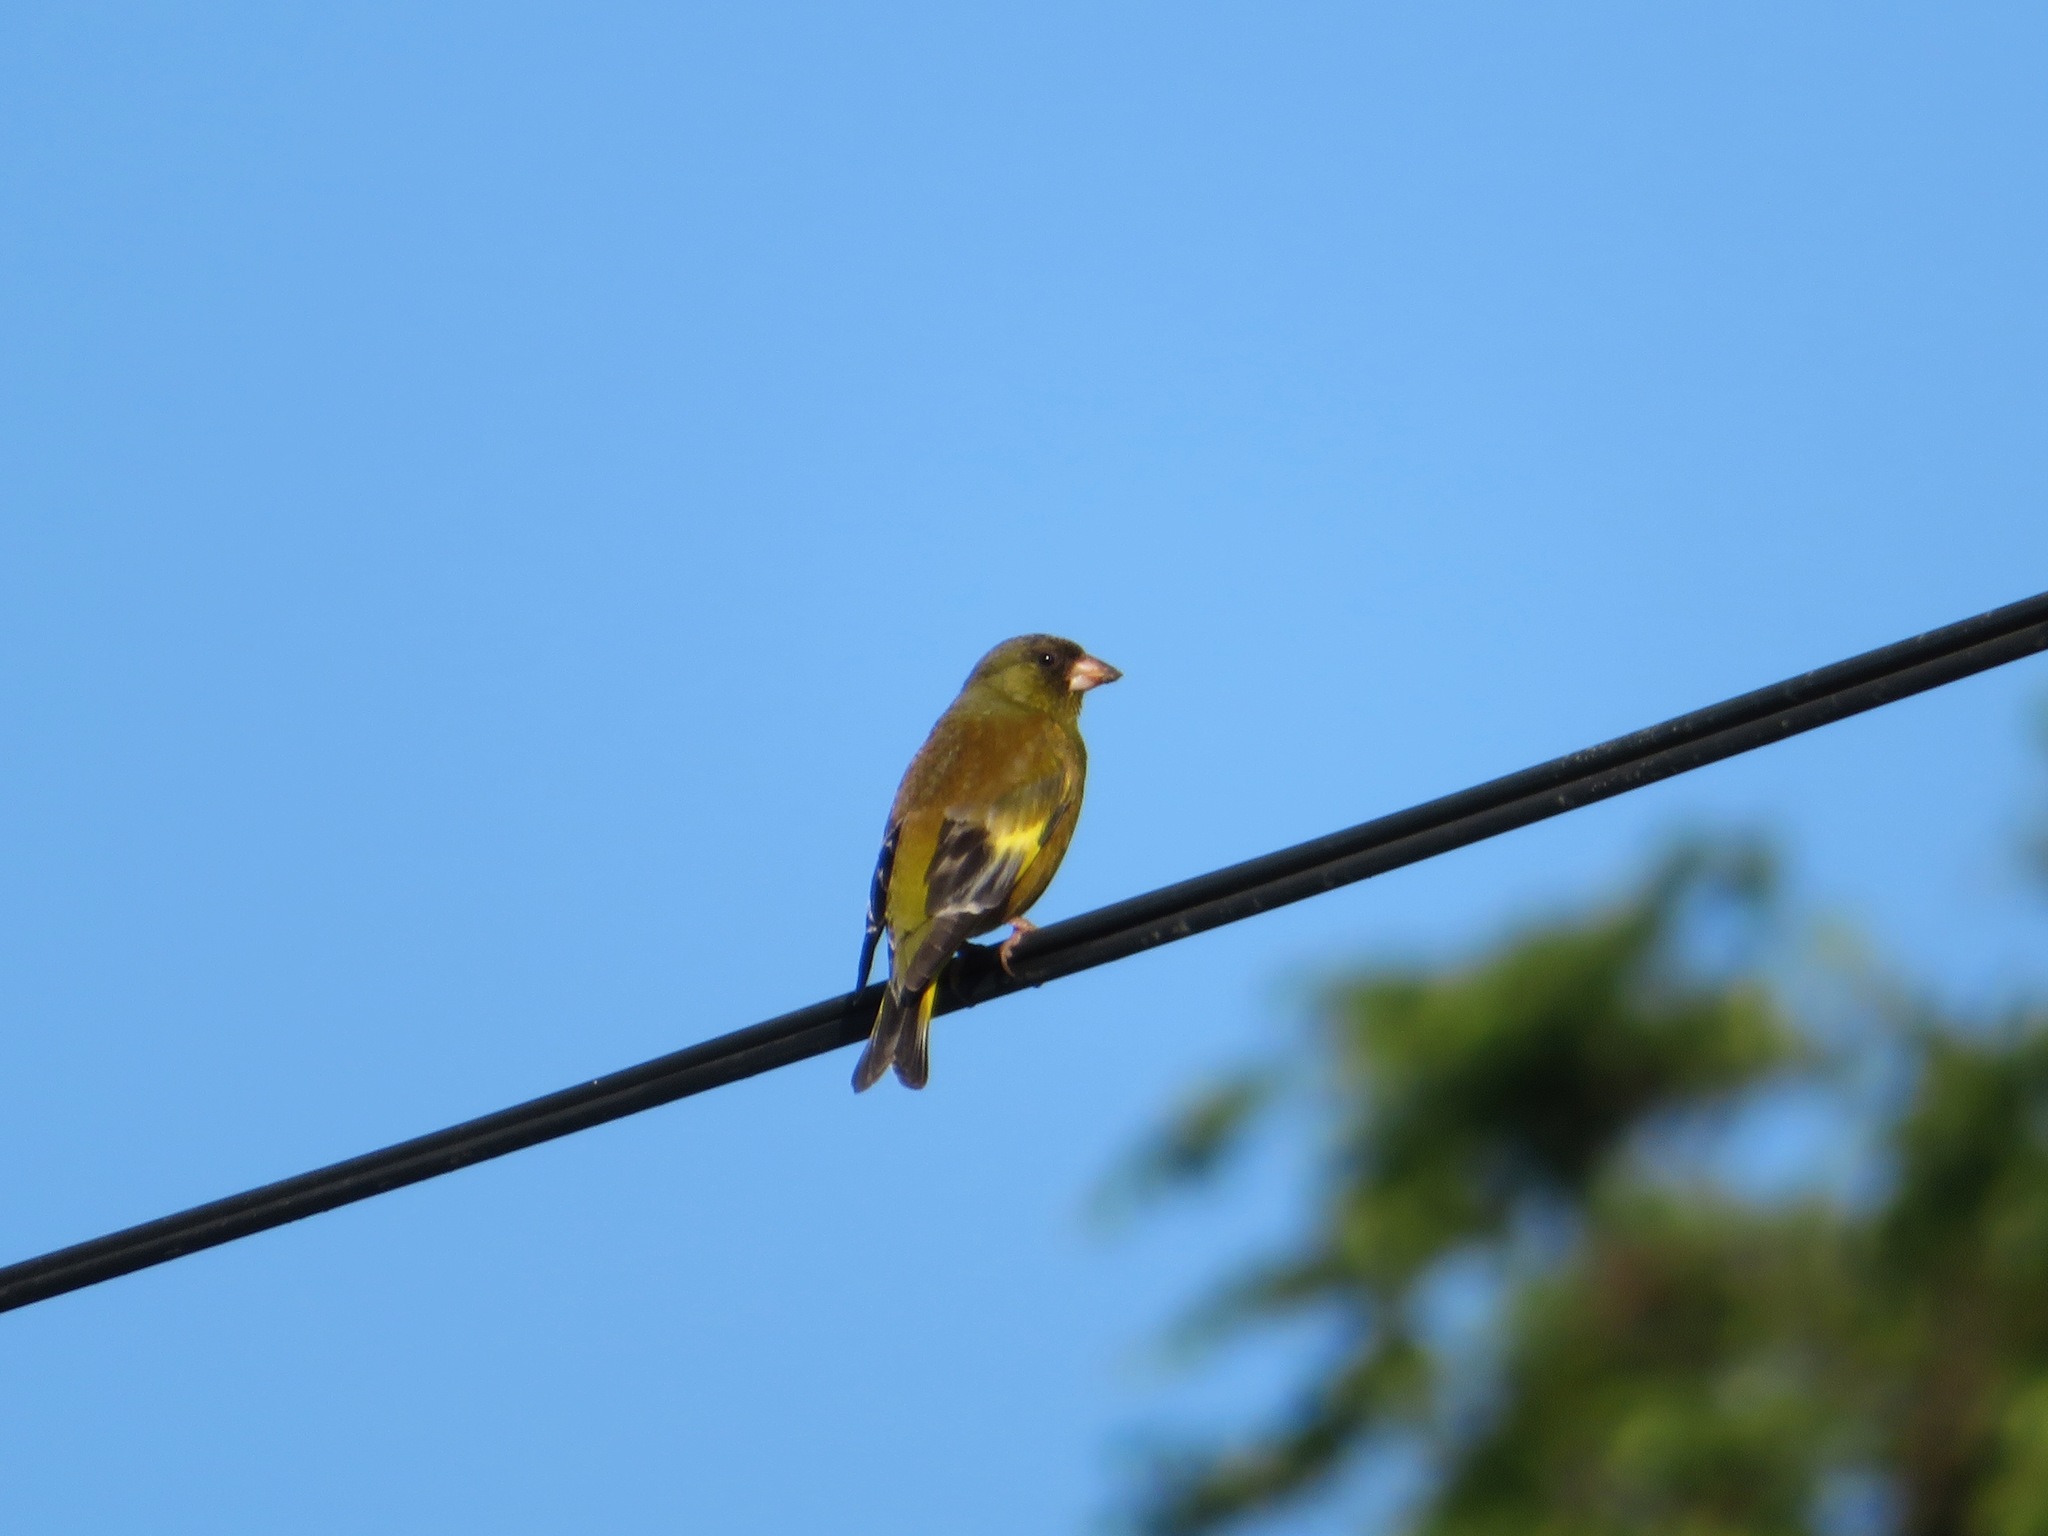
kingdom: Plantae
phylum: Tracheophyta
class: Liliopsida
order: Poales
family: Poaceae
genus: Chloris
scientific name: Chloris sinica
